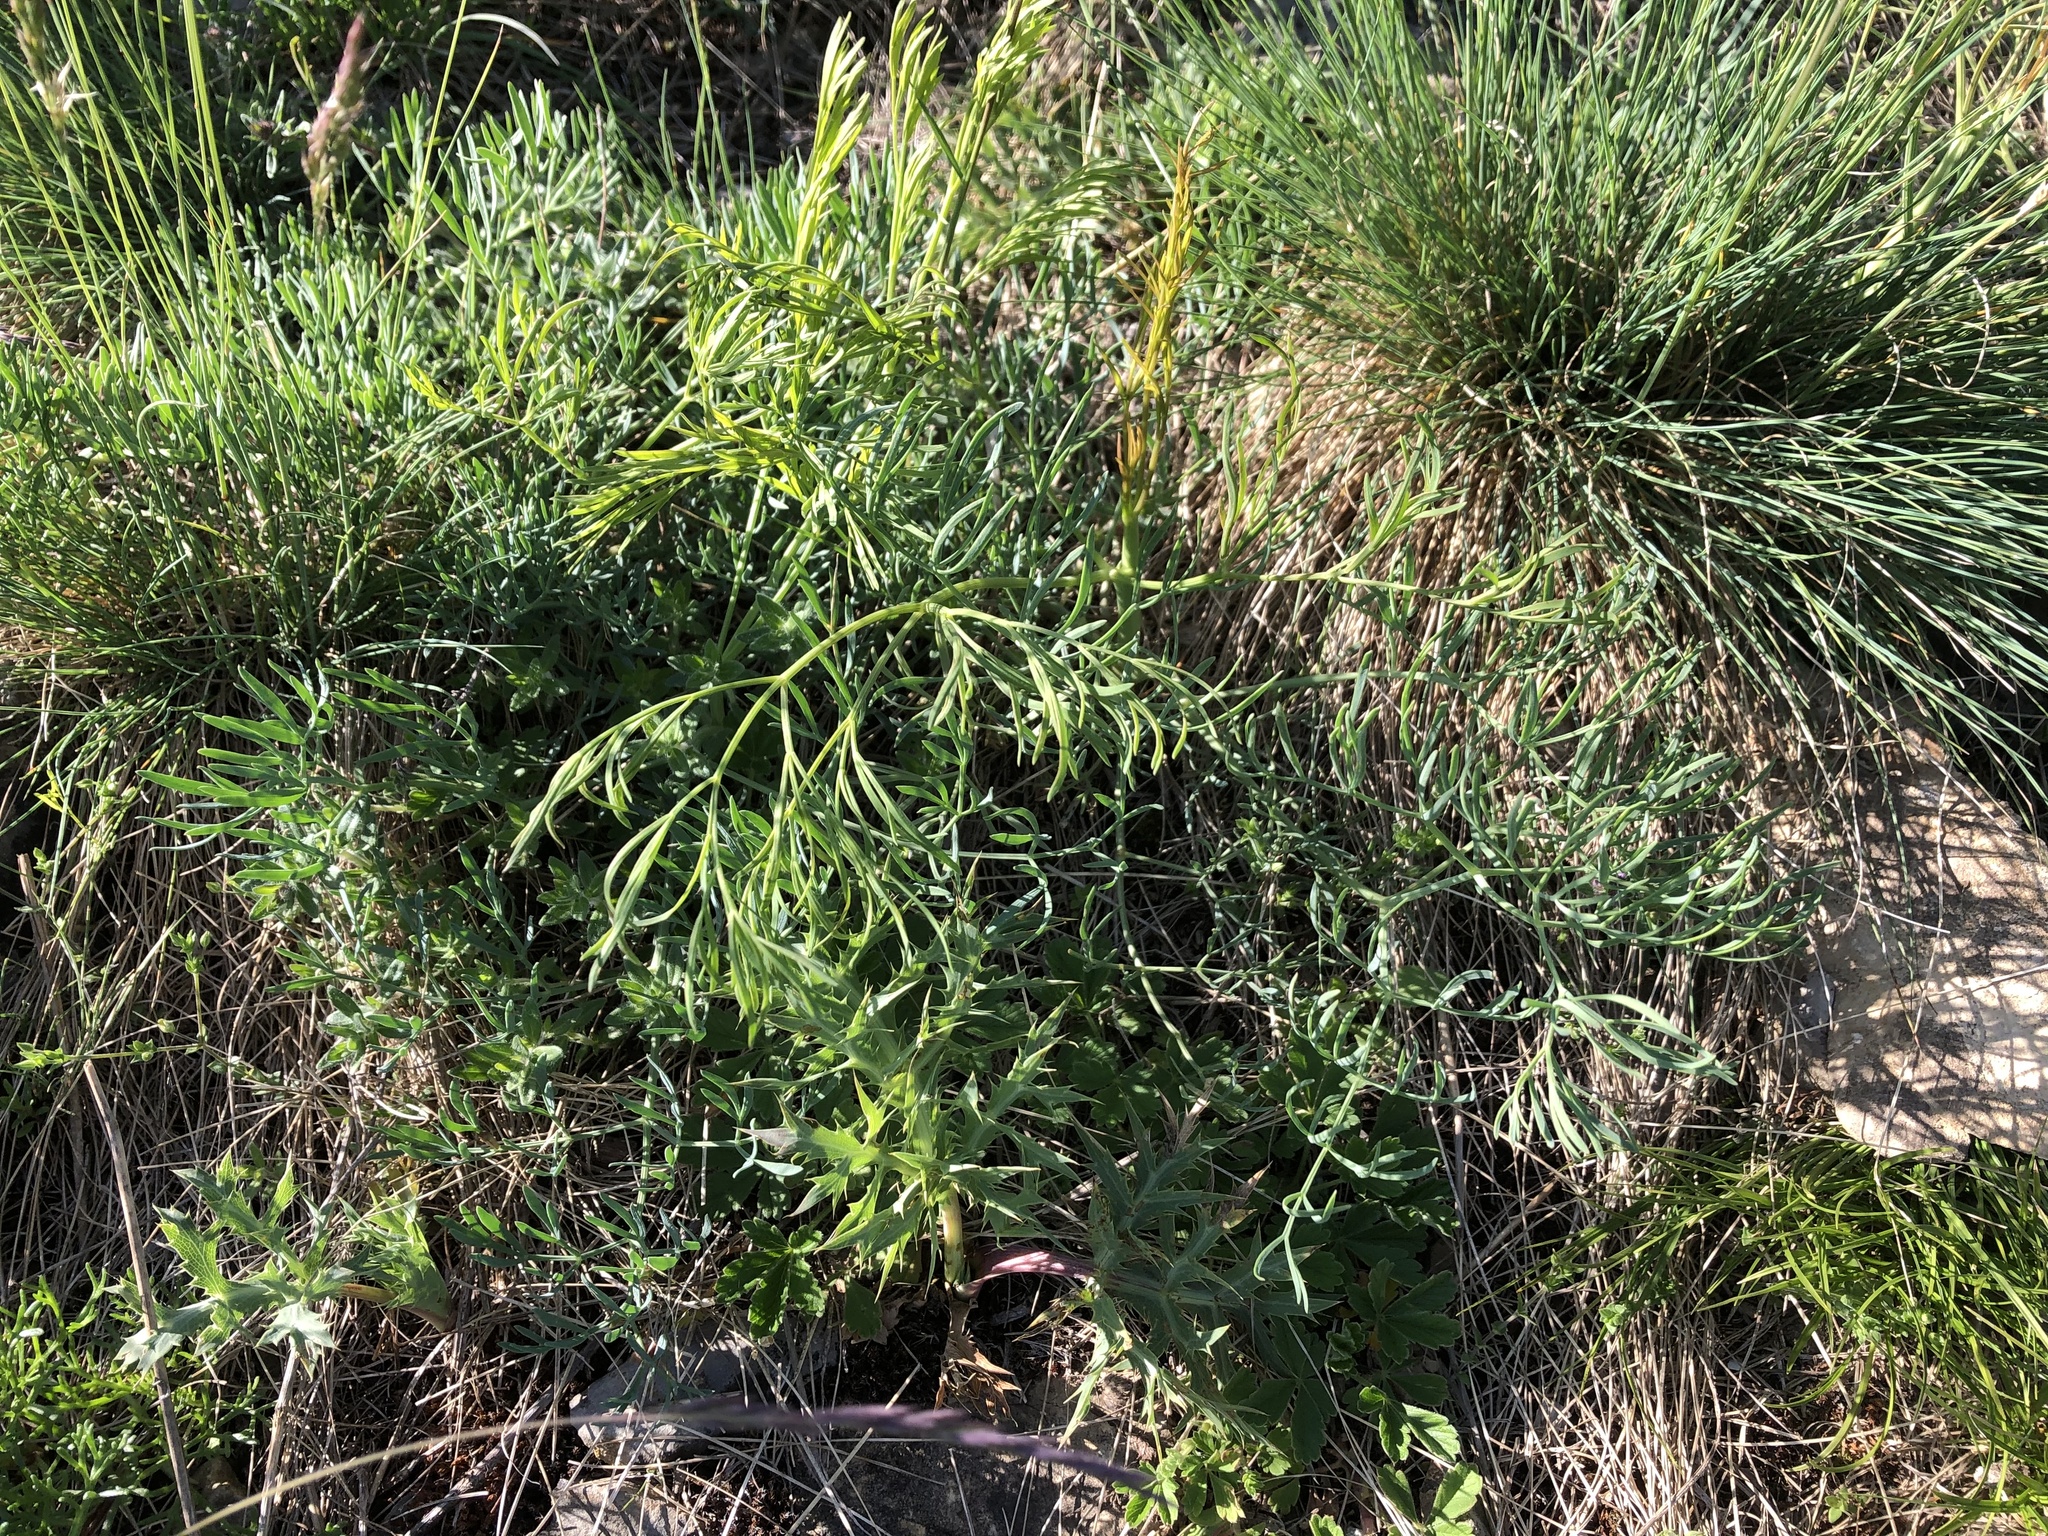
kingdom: Plantae
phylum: Tracheophyta
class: Magnoliopsida
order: Apiales
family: Apiaceae
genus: Seseli
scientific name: Seseli osseum
